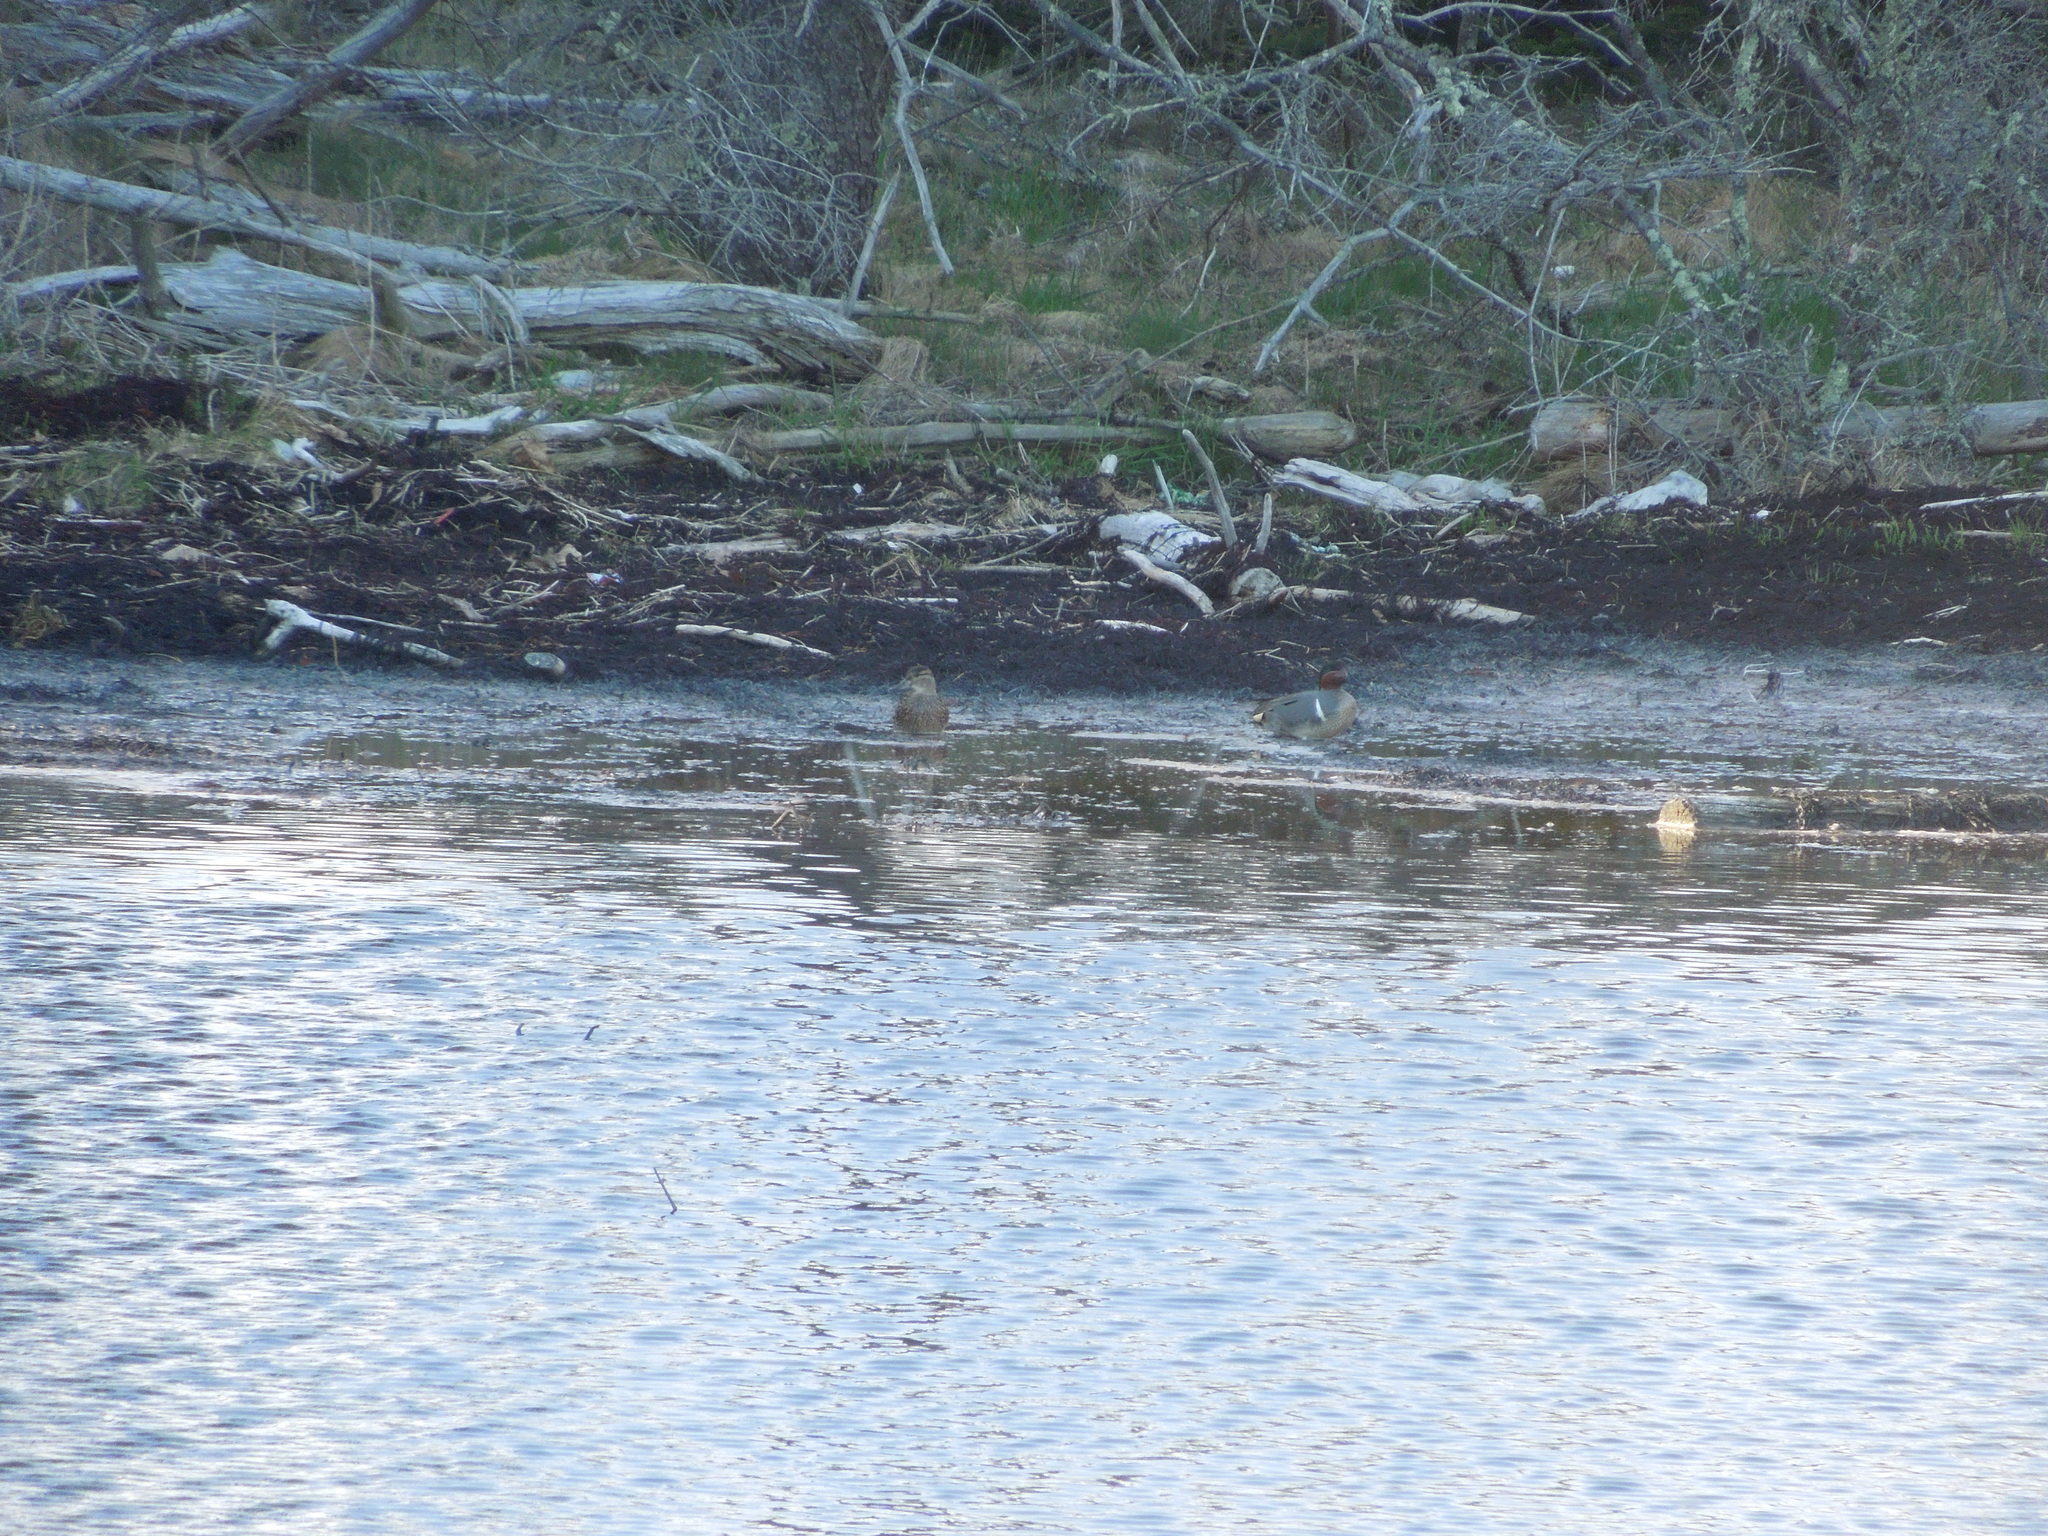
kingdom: Animalia
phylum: Chordata
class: Aves
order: Anseriformes
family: Anatidae
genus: Anas
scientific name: Anas crecca
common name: Eurasian teal
